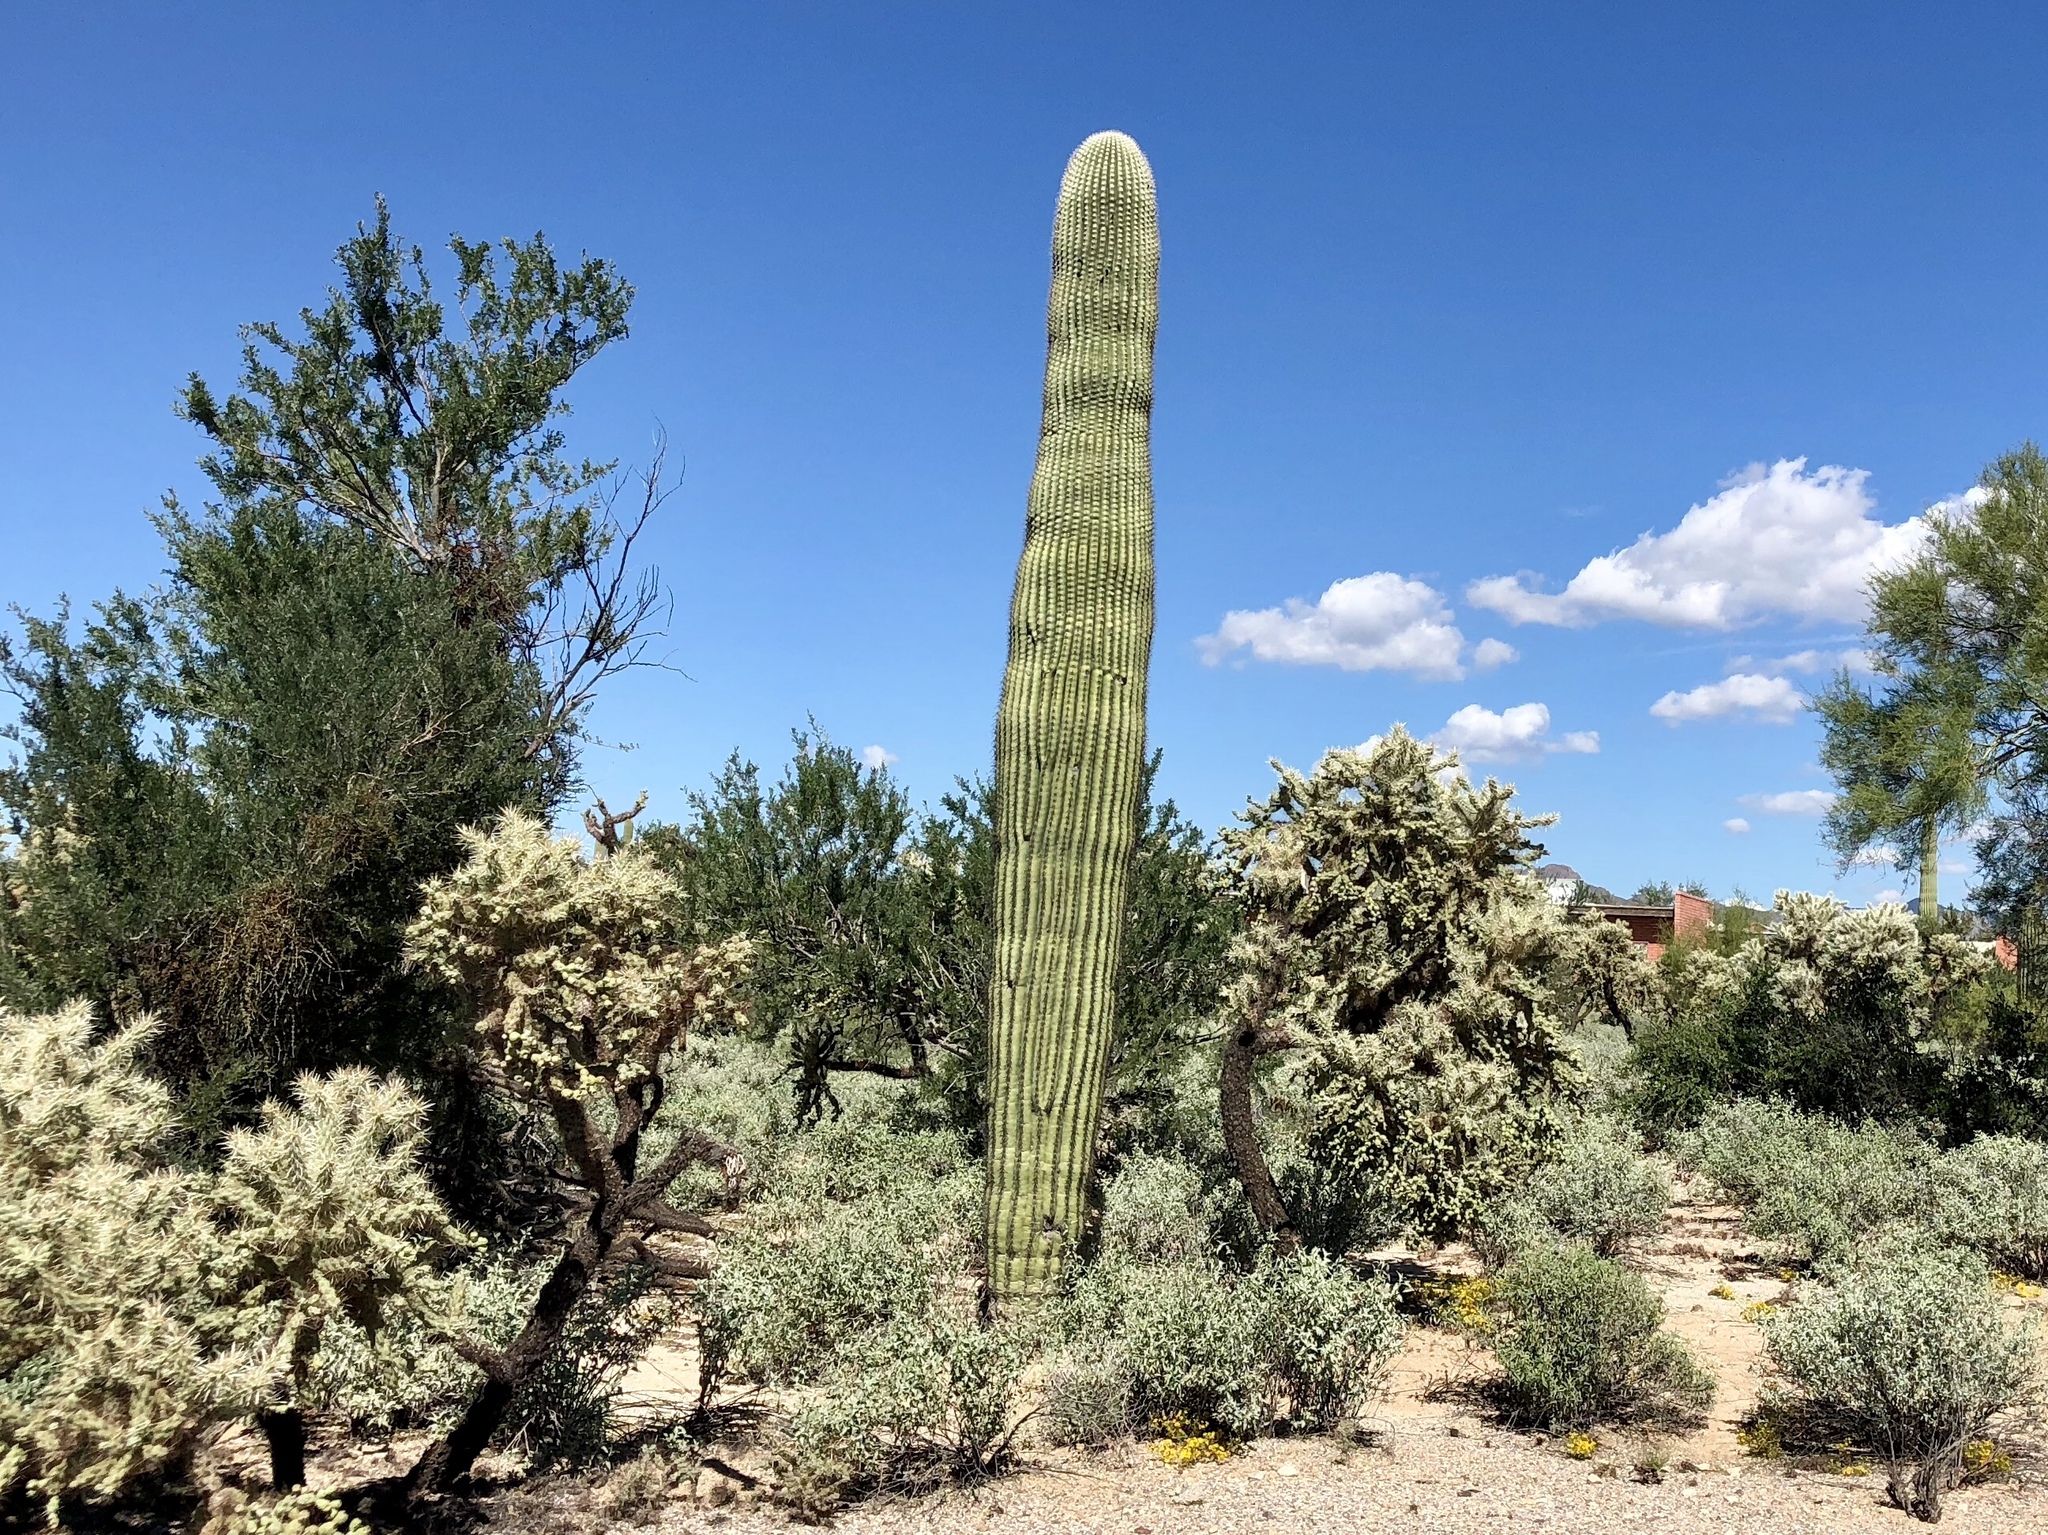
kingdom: Plantae
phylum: Tracheophyta
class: Magnoliopsida
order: Caryophyllales
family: Cactaceae
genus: Carnegiea
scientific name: Carnegiea gigantea
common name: Saguaro
